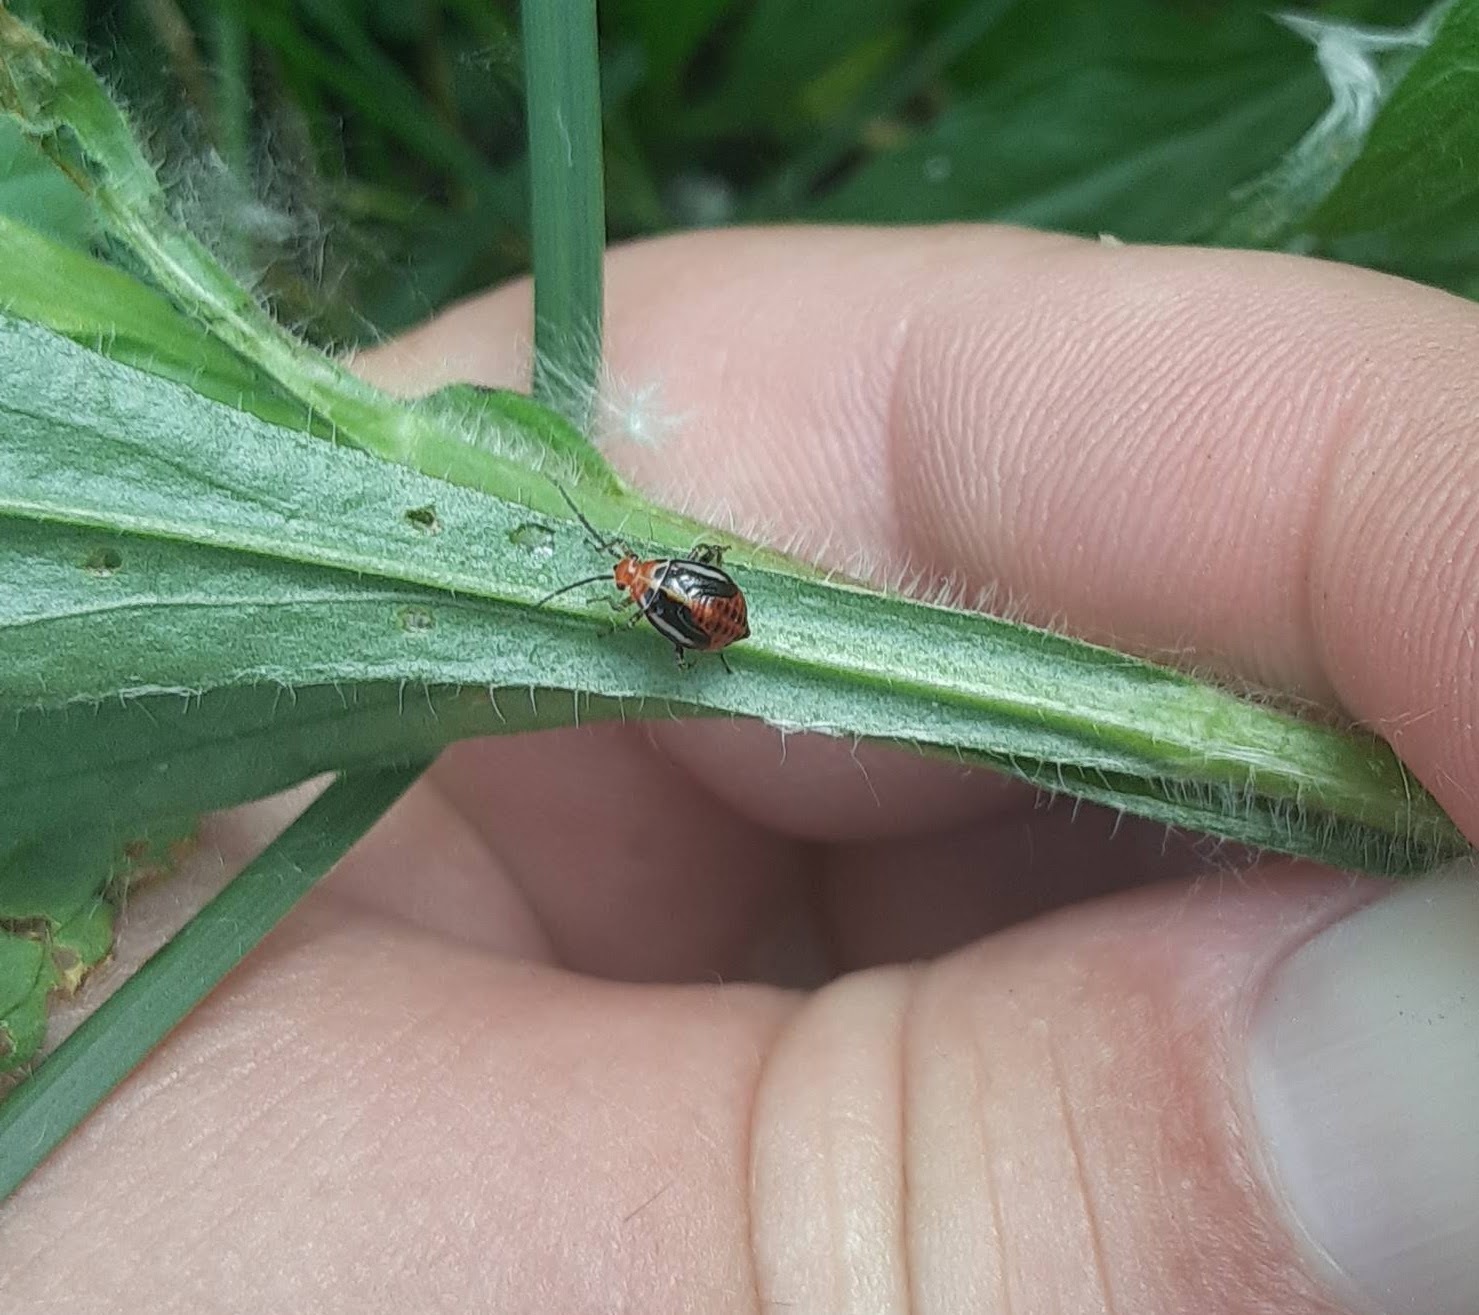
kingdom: Animalia
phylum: Arthropoda
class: Insecta
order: Hemiptera
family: Miridae
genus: Poecilocapsus
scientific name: Poecilocapsus lineatus
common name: Four-lined plant bug
